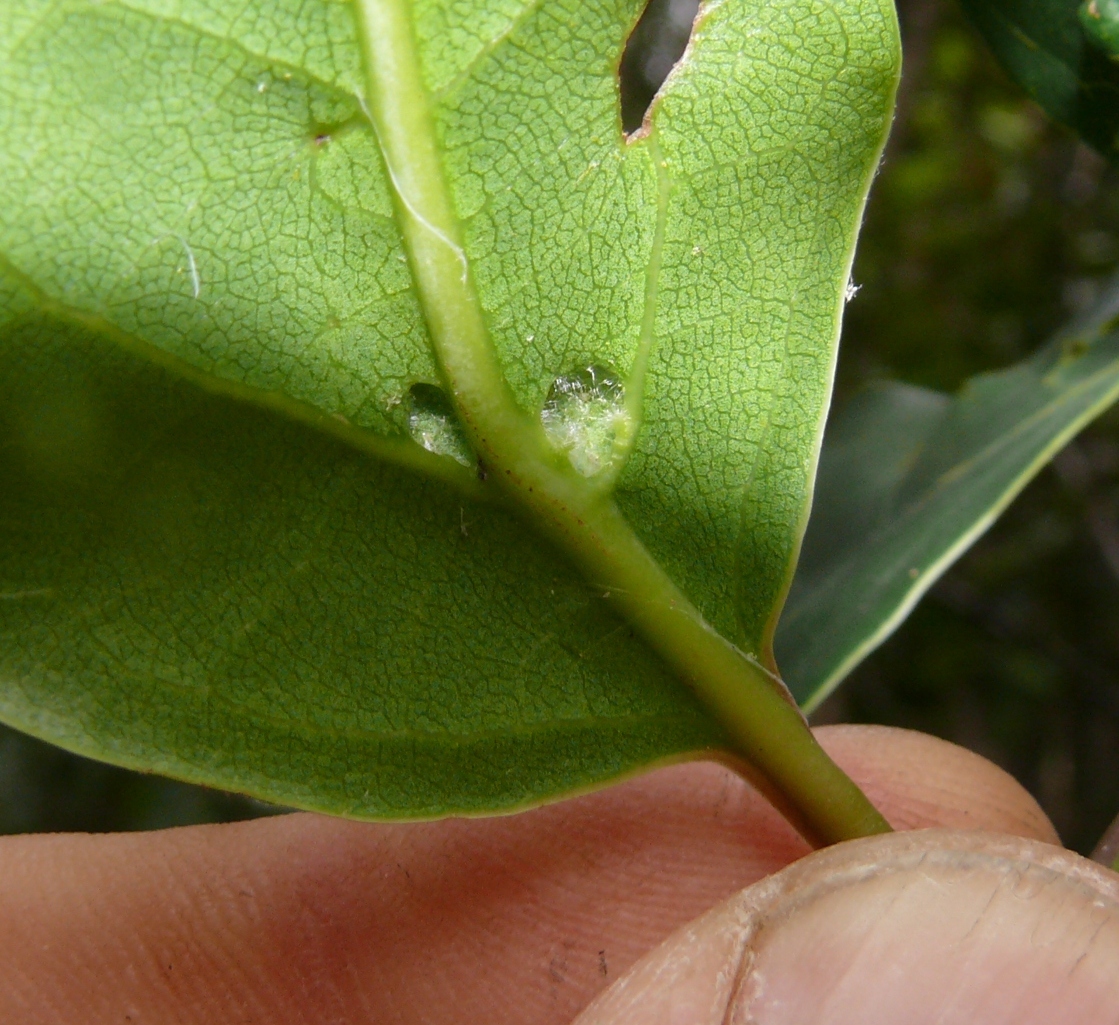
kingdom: Plantae
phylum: Tracheophyta
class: Magnoliopsida
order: Laurales
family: Lauraceae
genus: Ocotea
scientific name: Ocotea bullata
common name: Black stinkwood
